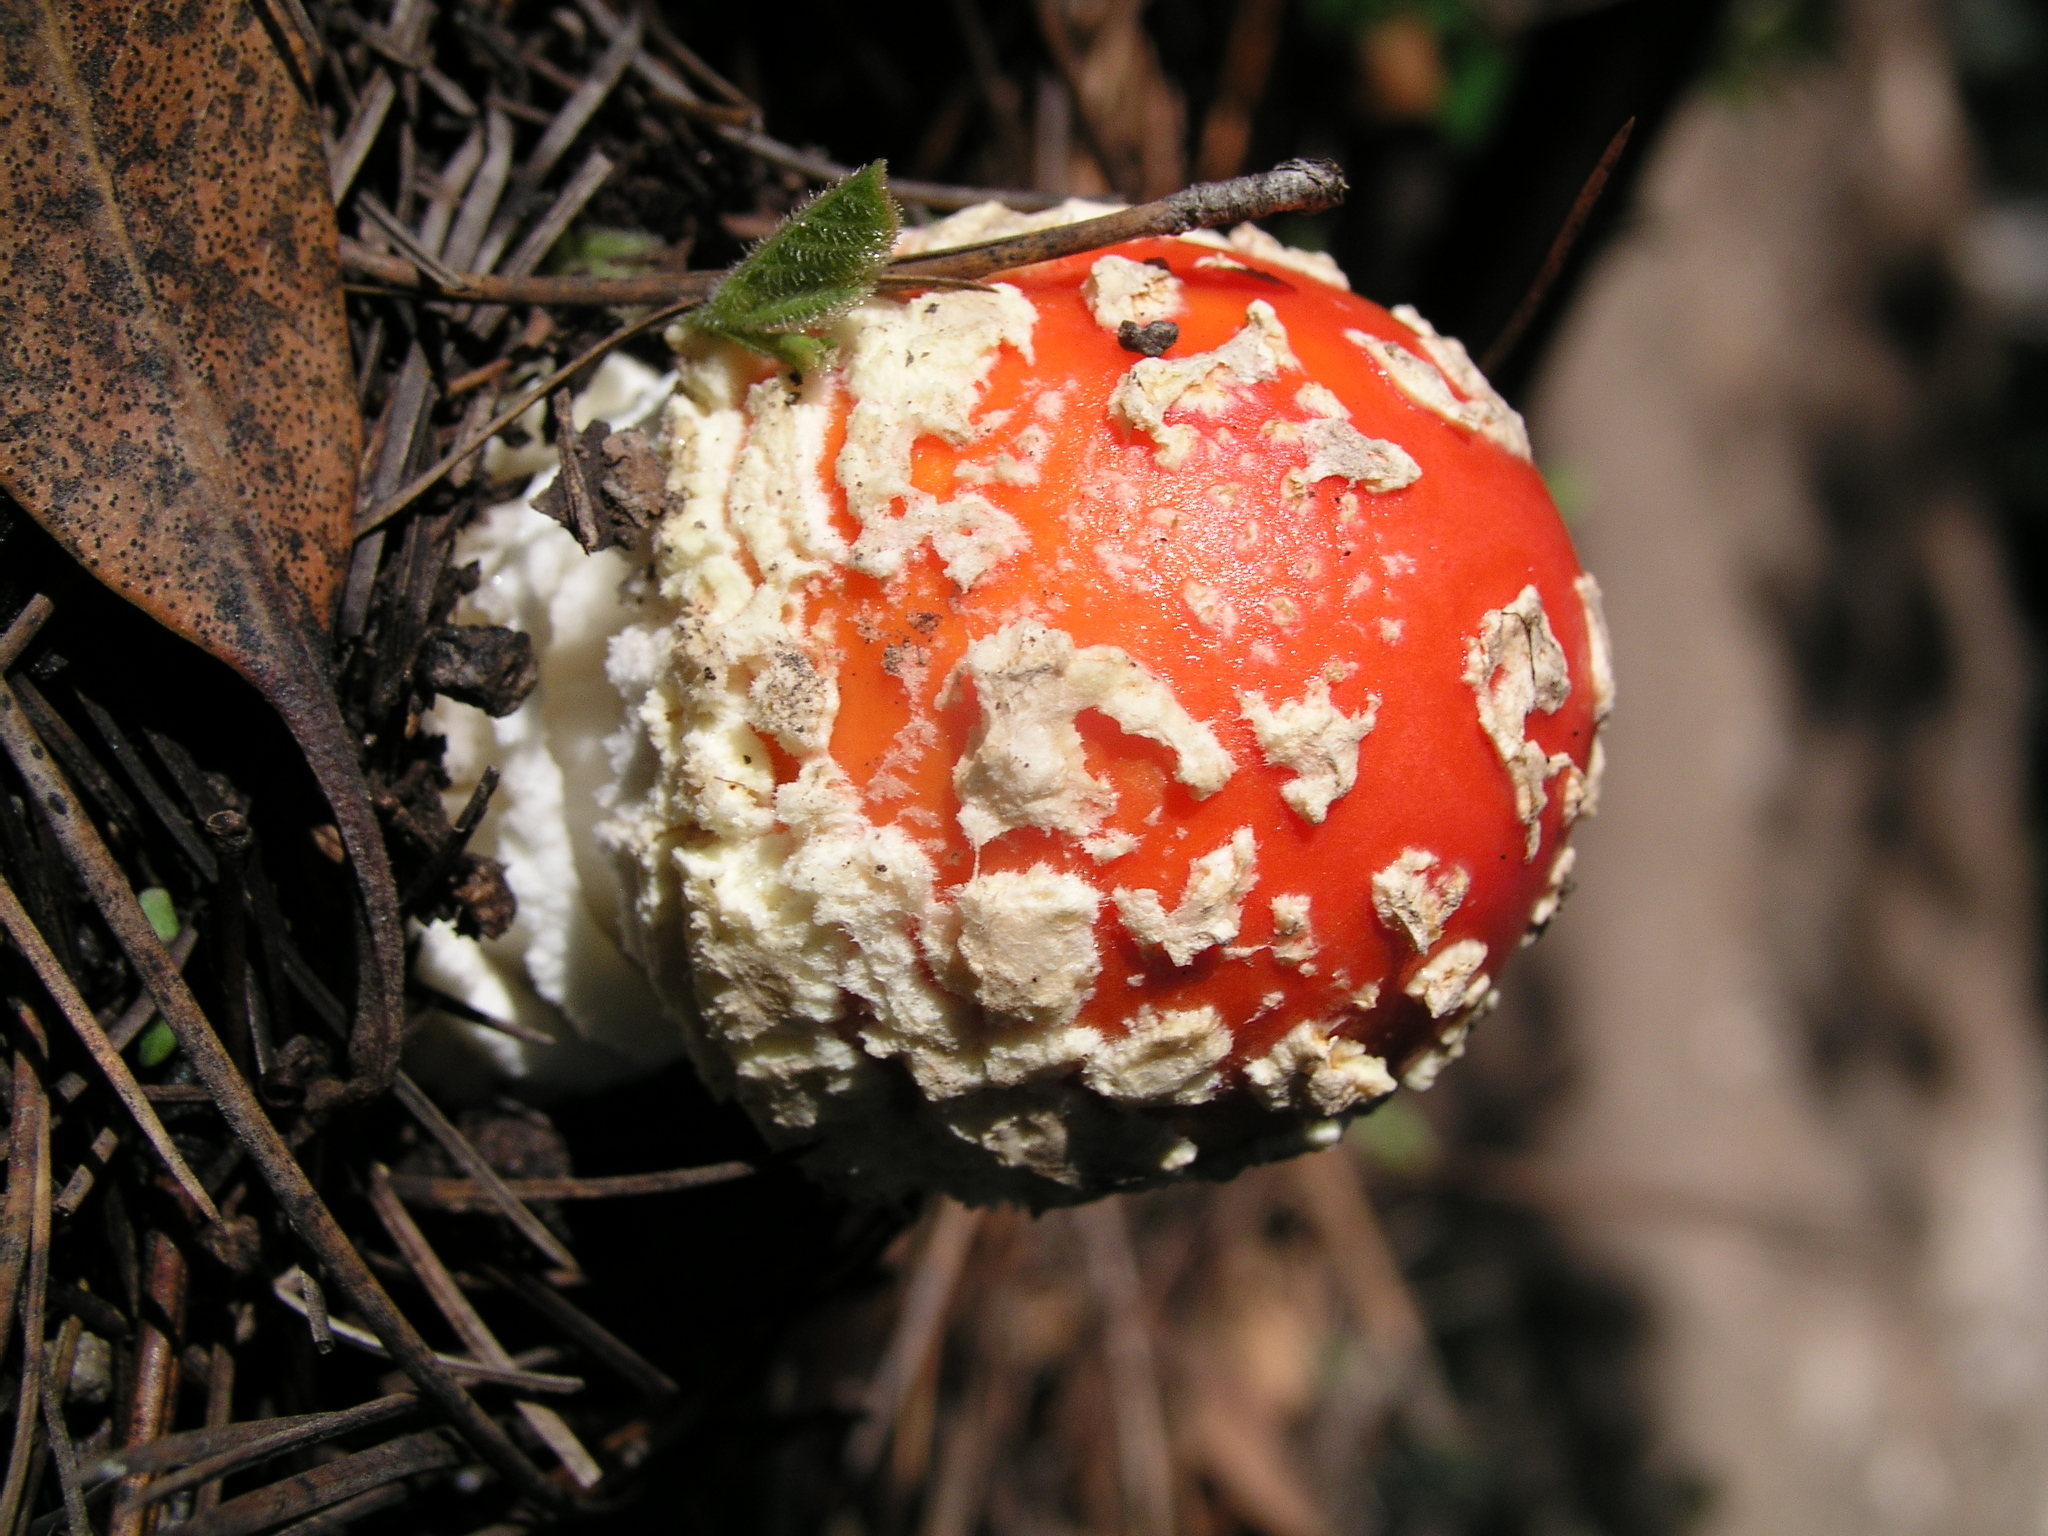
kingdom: Fungi
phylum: Basidiomycota
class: Agaricomycetes
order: Agaricales
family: Amanitaceae
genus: Amanita
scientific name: Amanita muscaria
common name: Fly agaric
